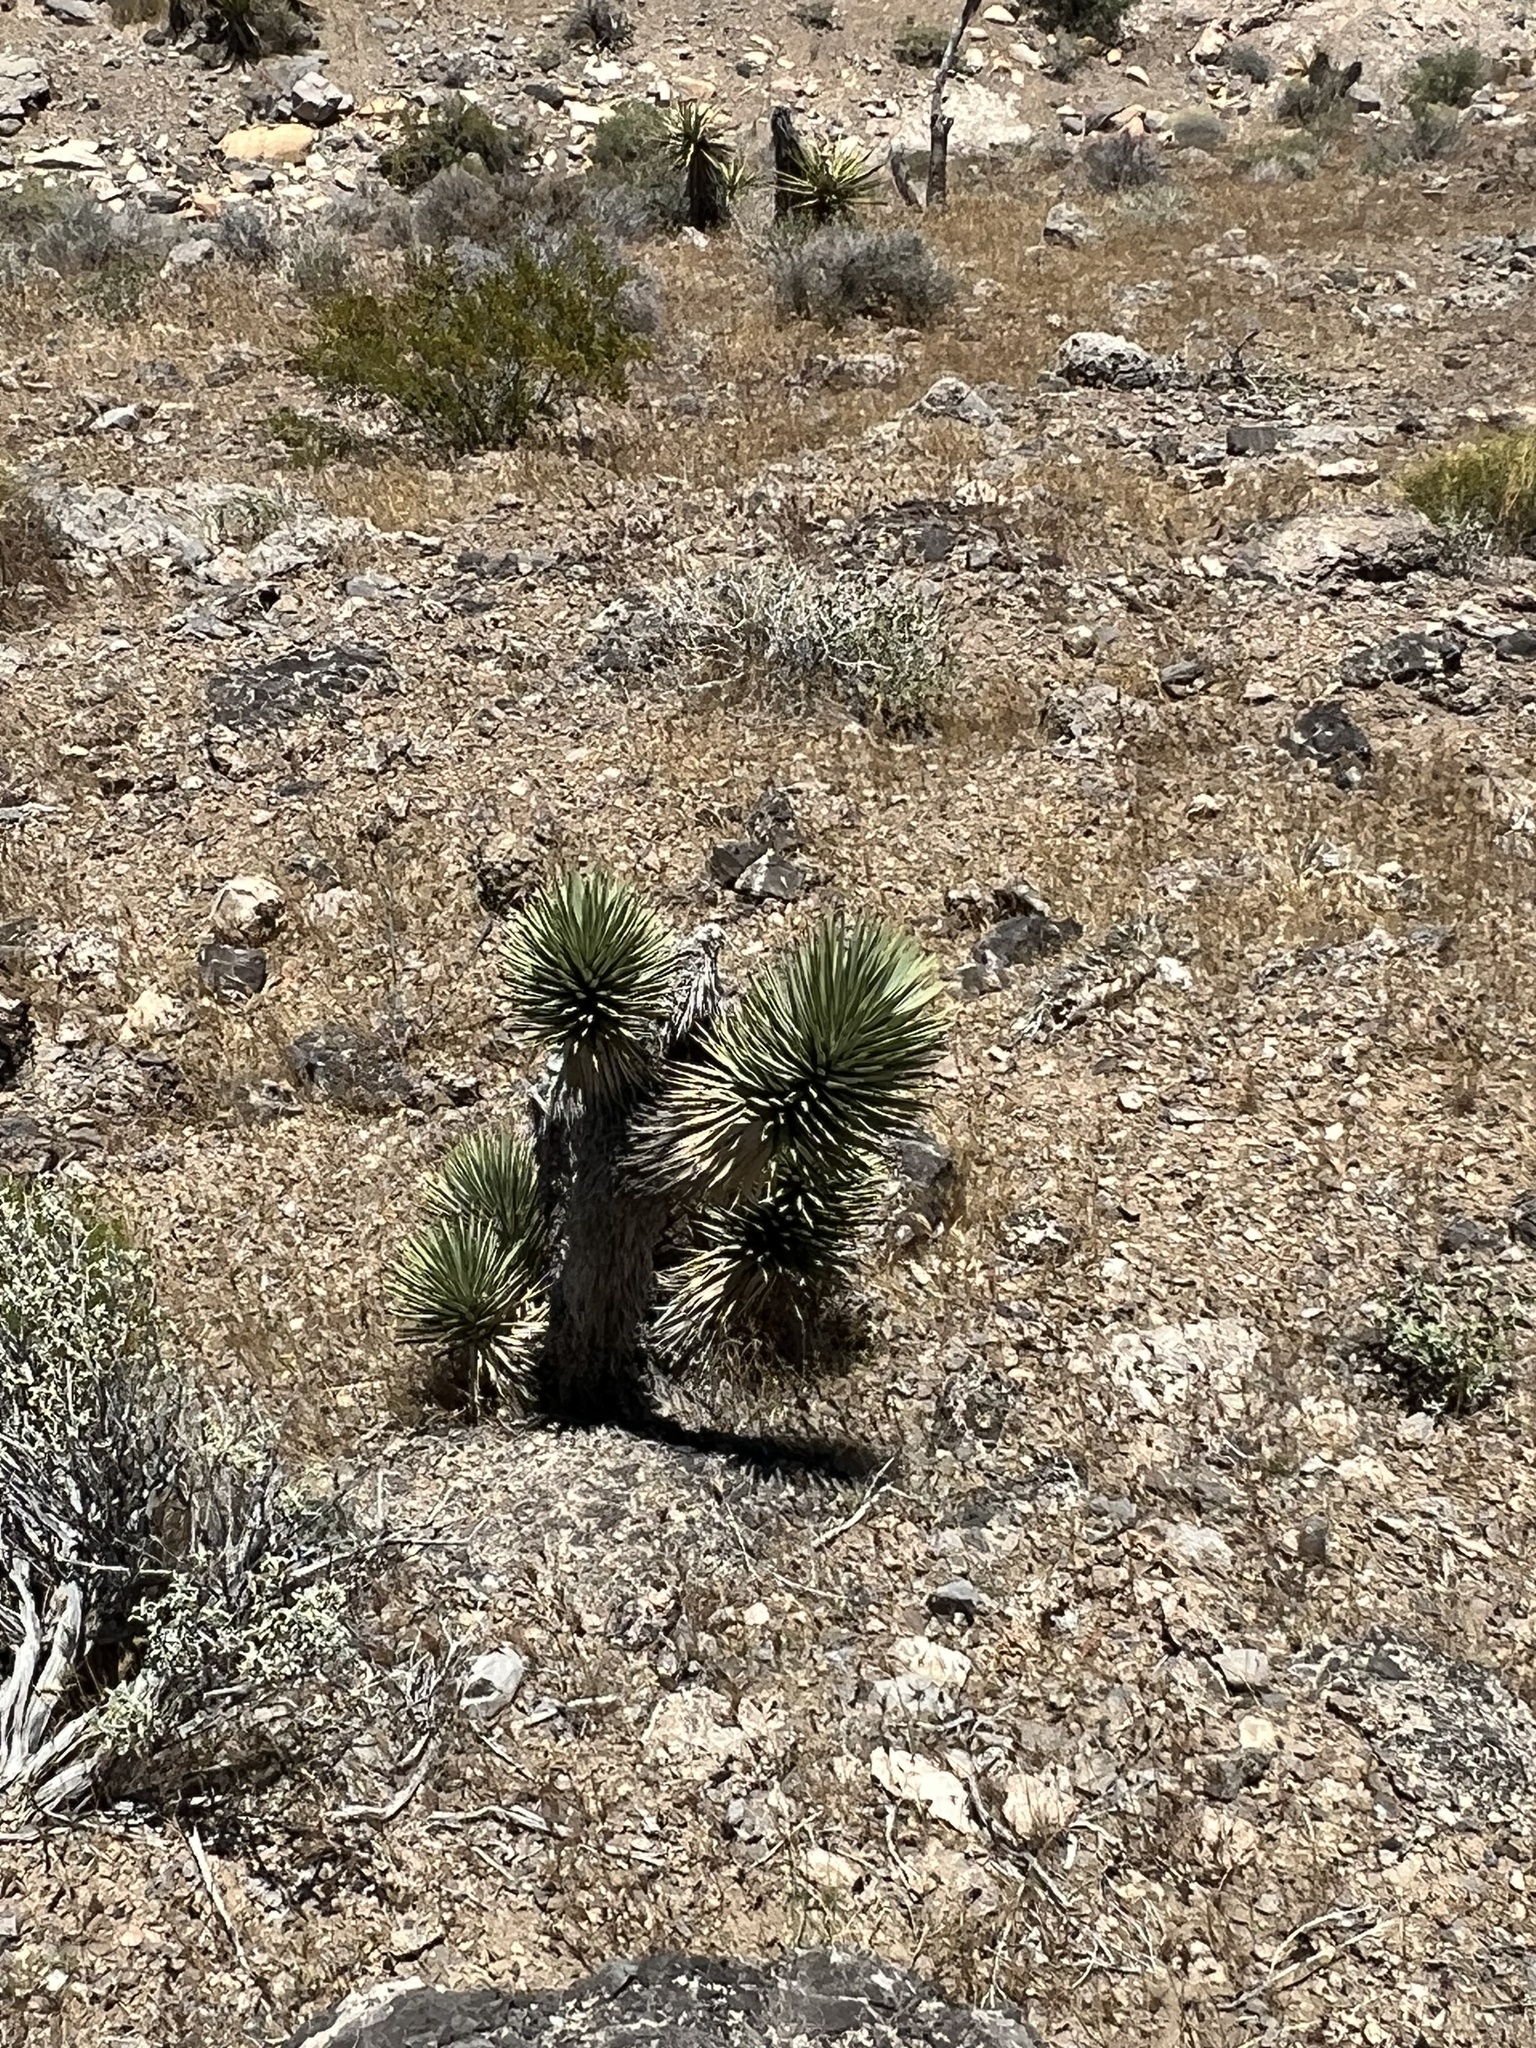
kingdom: Plantae
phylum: Tracheophyta
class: Liliopsida
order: Asparagales
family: Asparagaceae
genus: Yucca
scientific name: Yucca brevifolia
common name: Joshua tree
